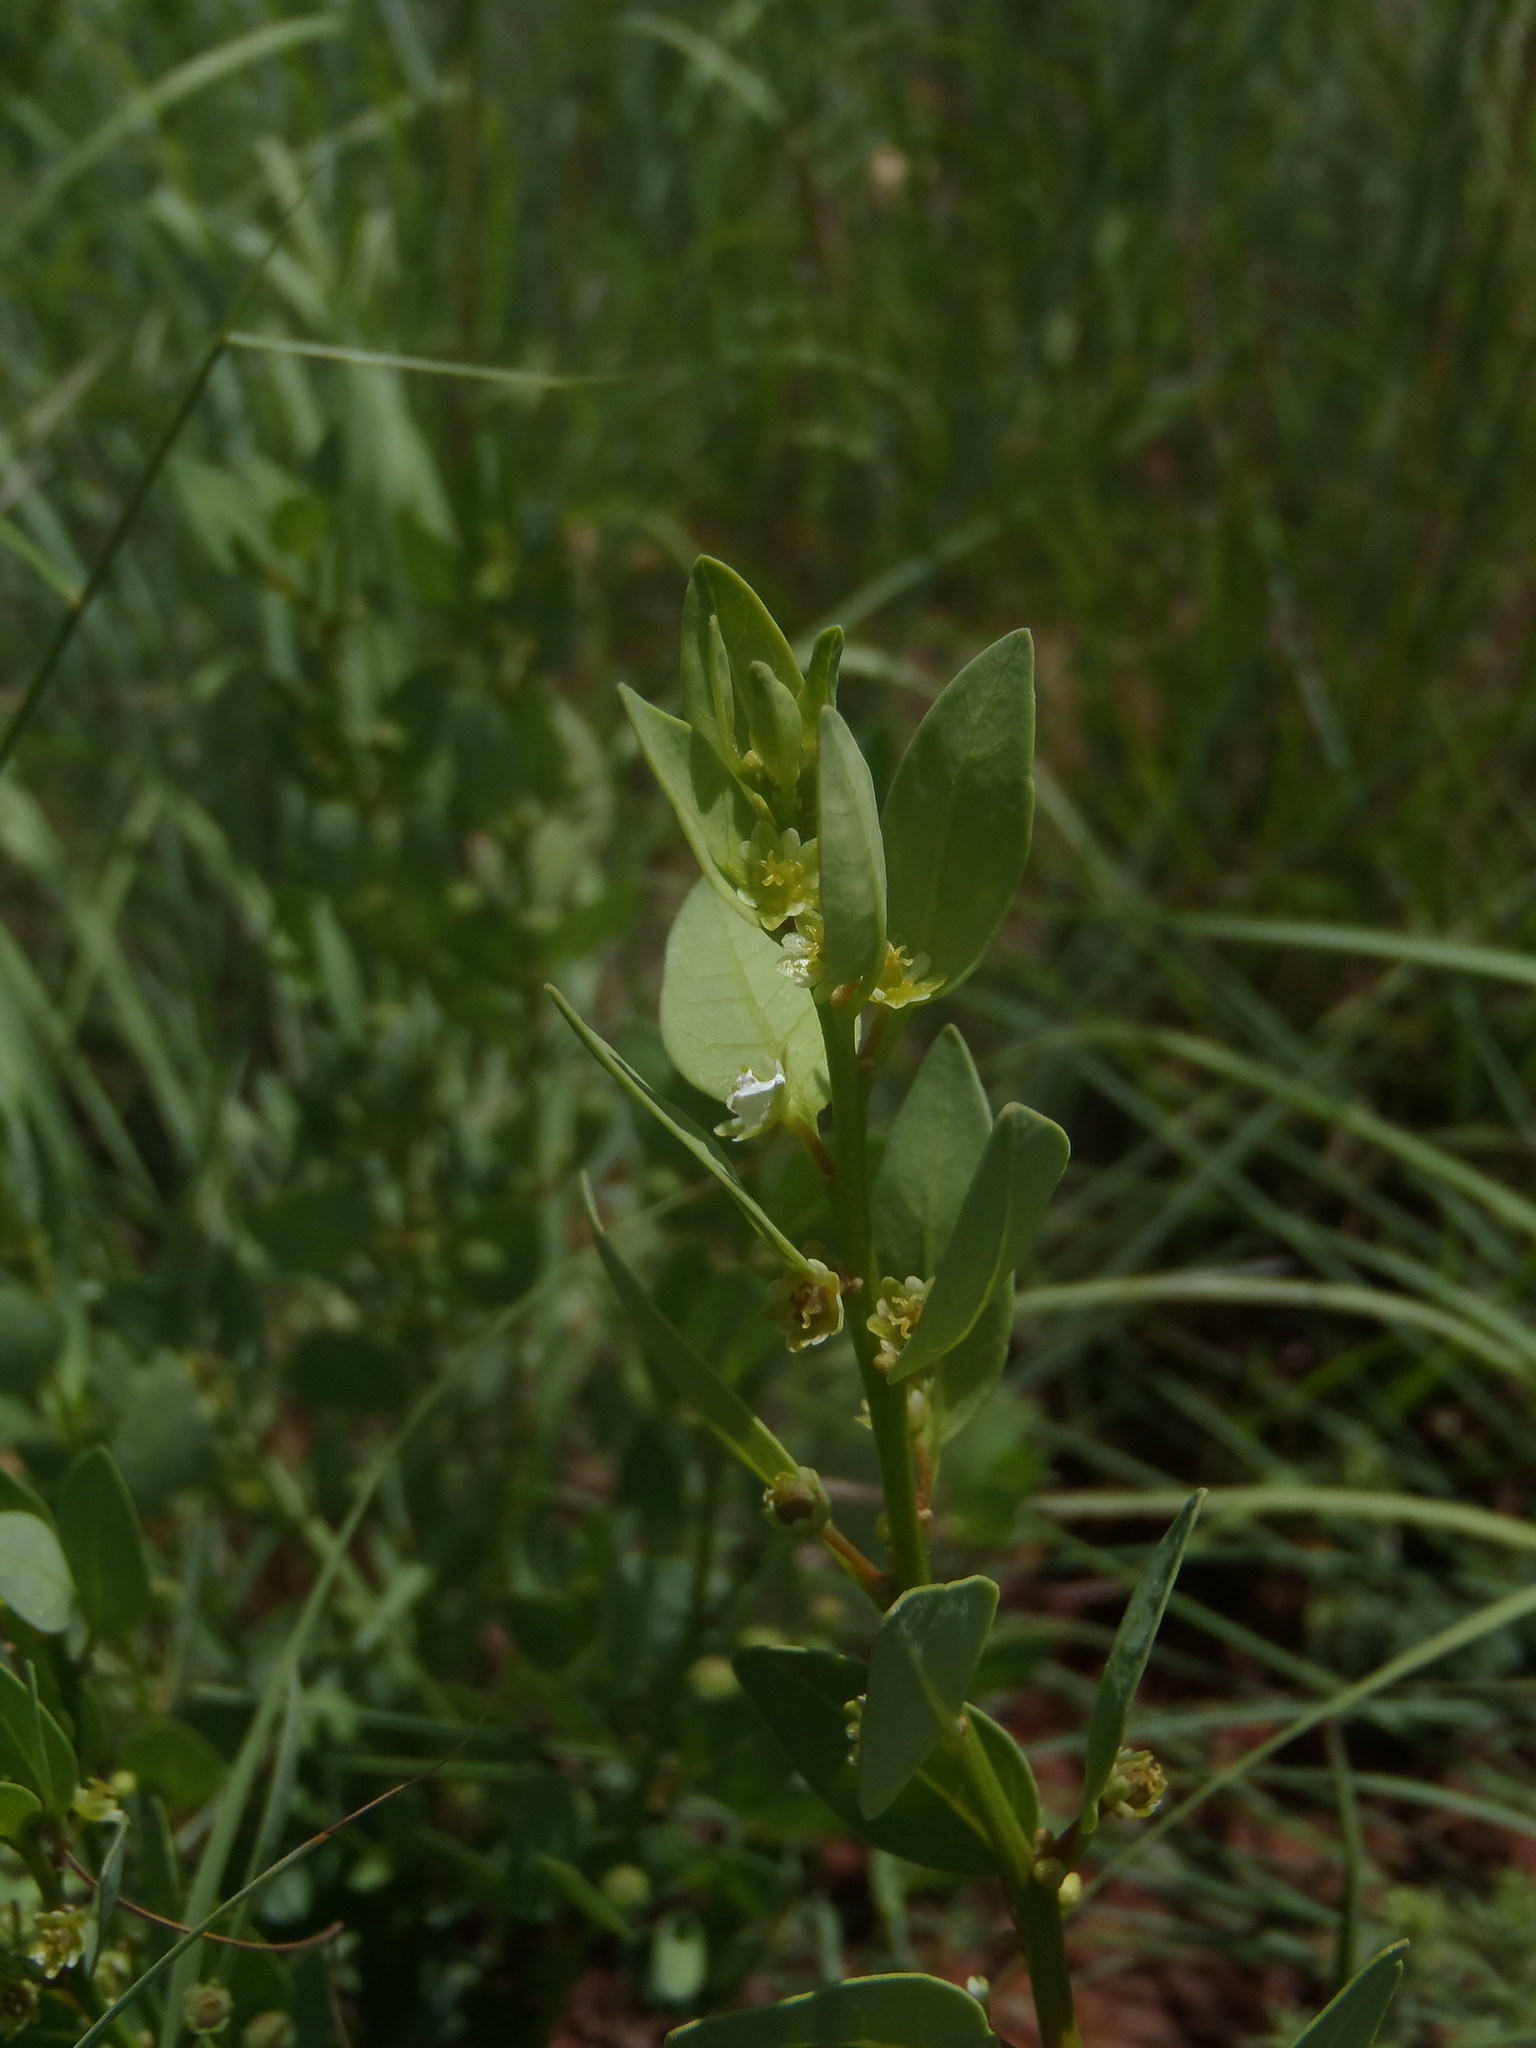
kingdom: Plantae
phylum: Tracheophyta
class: Magnoliopsida
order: Malpighiales
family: Peraceae
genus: Clutia
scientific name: Clutia pulchella
